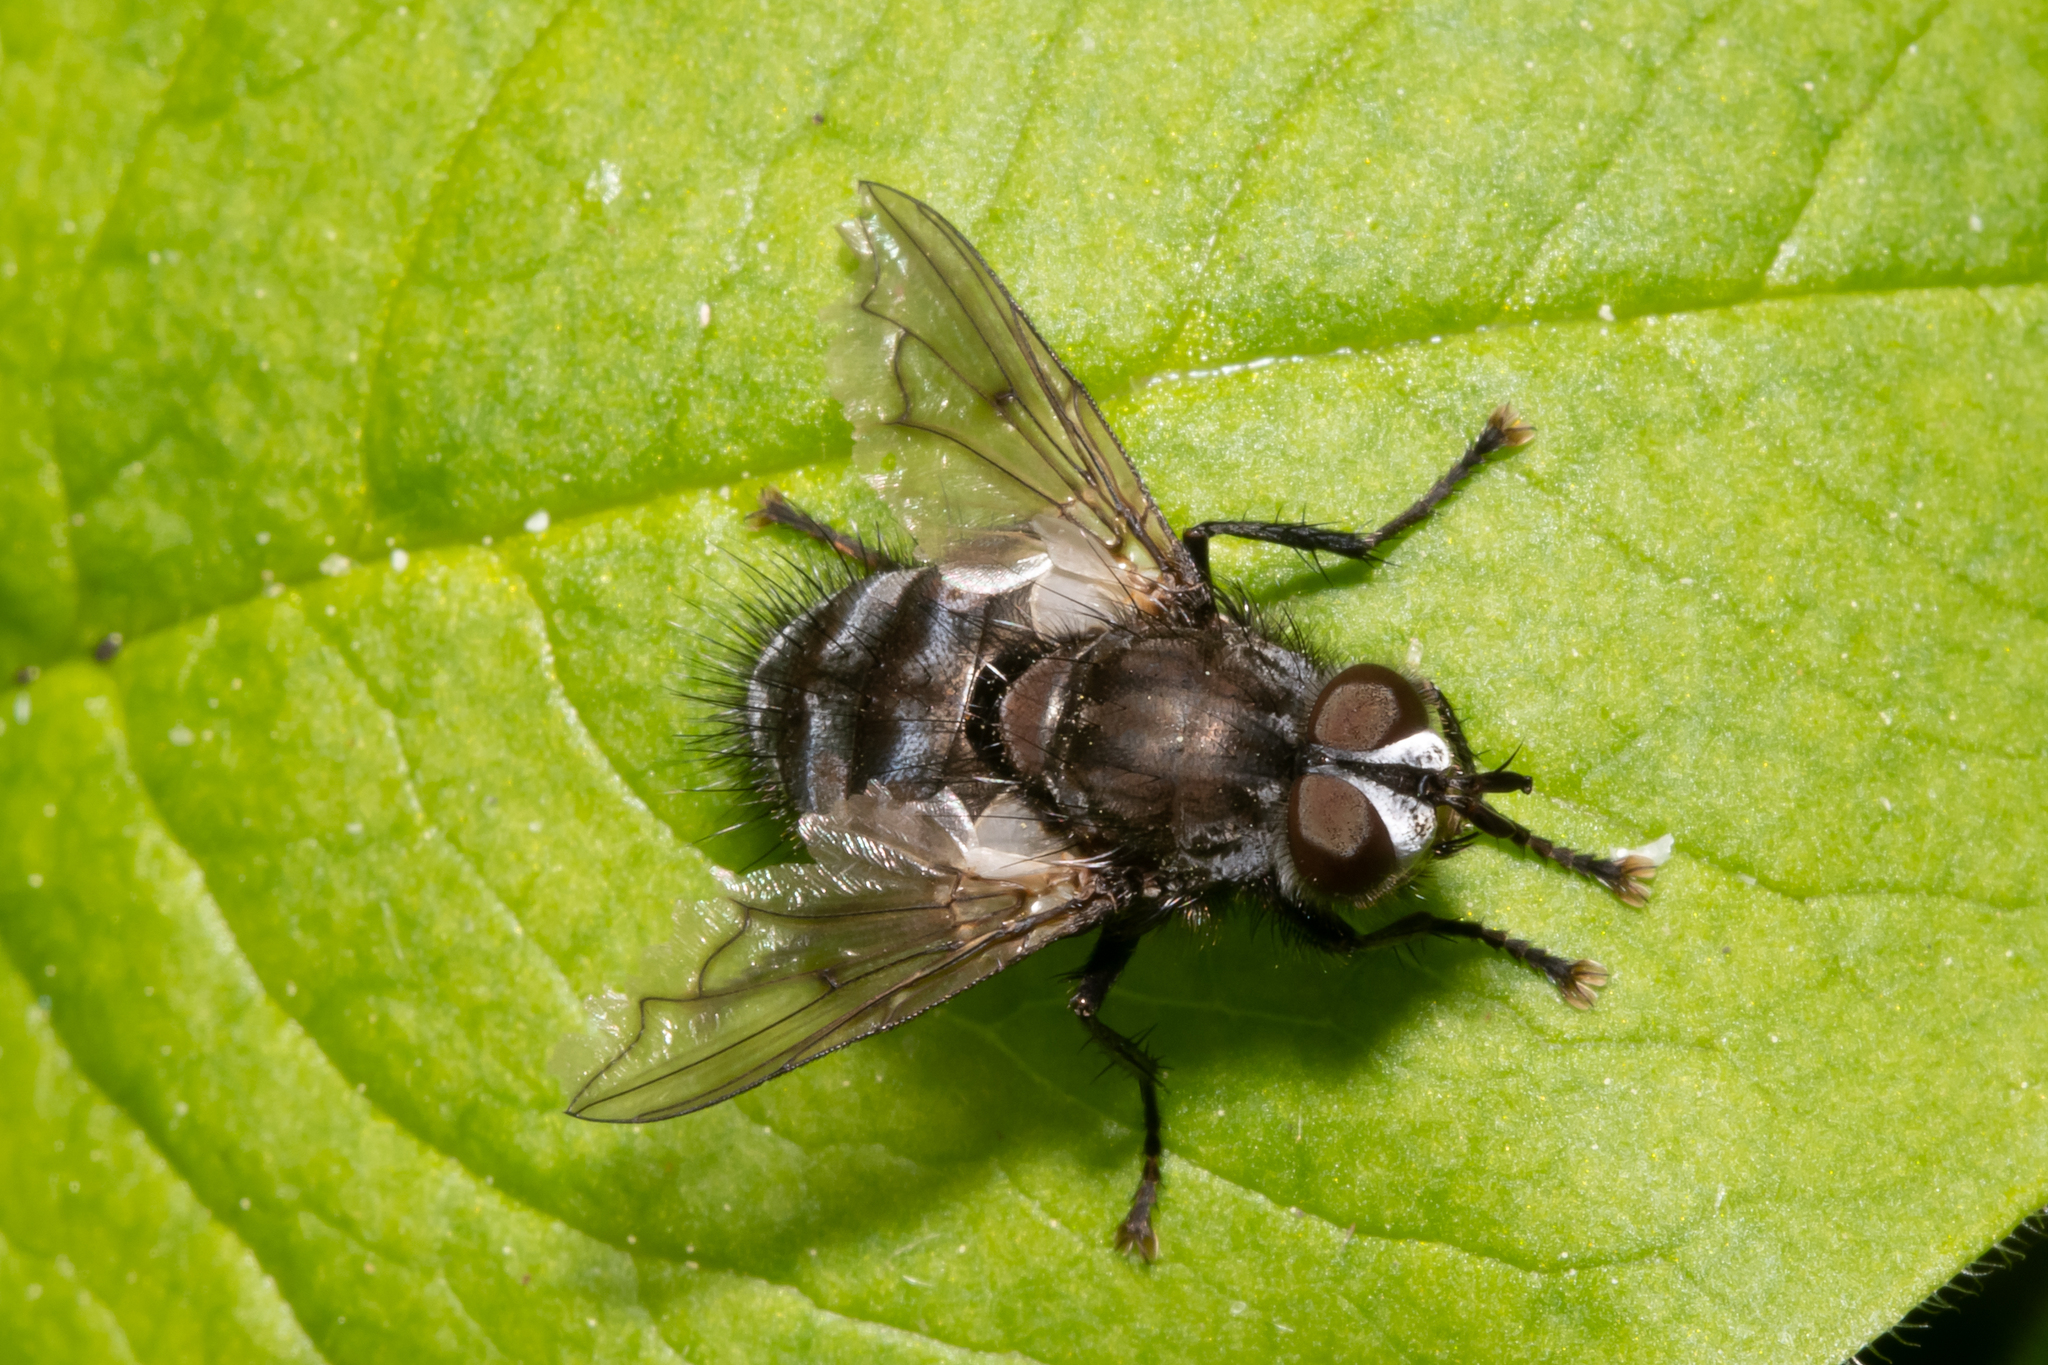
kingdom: Animalia
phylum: Arthropoda
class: Insecta
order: Diptera
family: Tachinidae
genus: Panzeria
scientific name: Panzeria puparum
